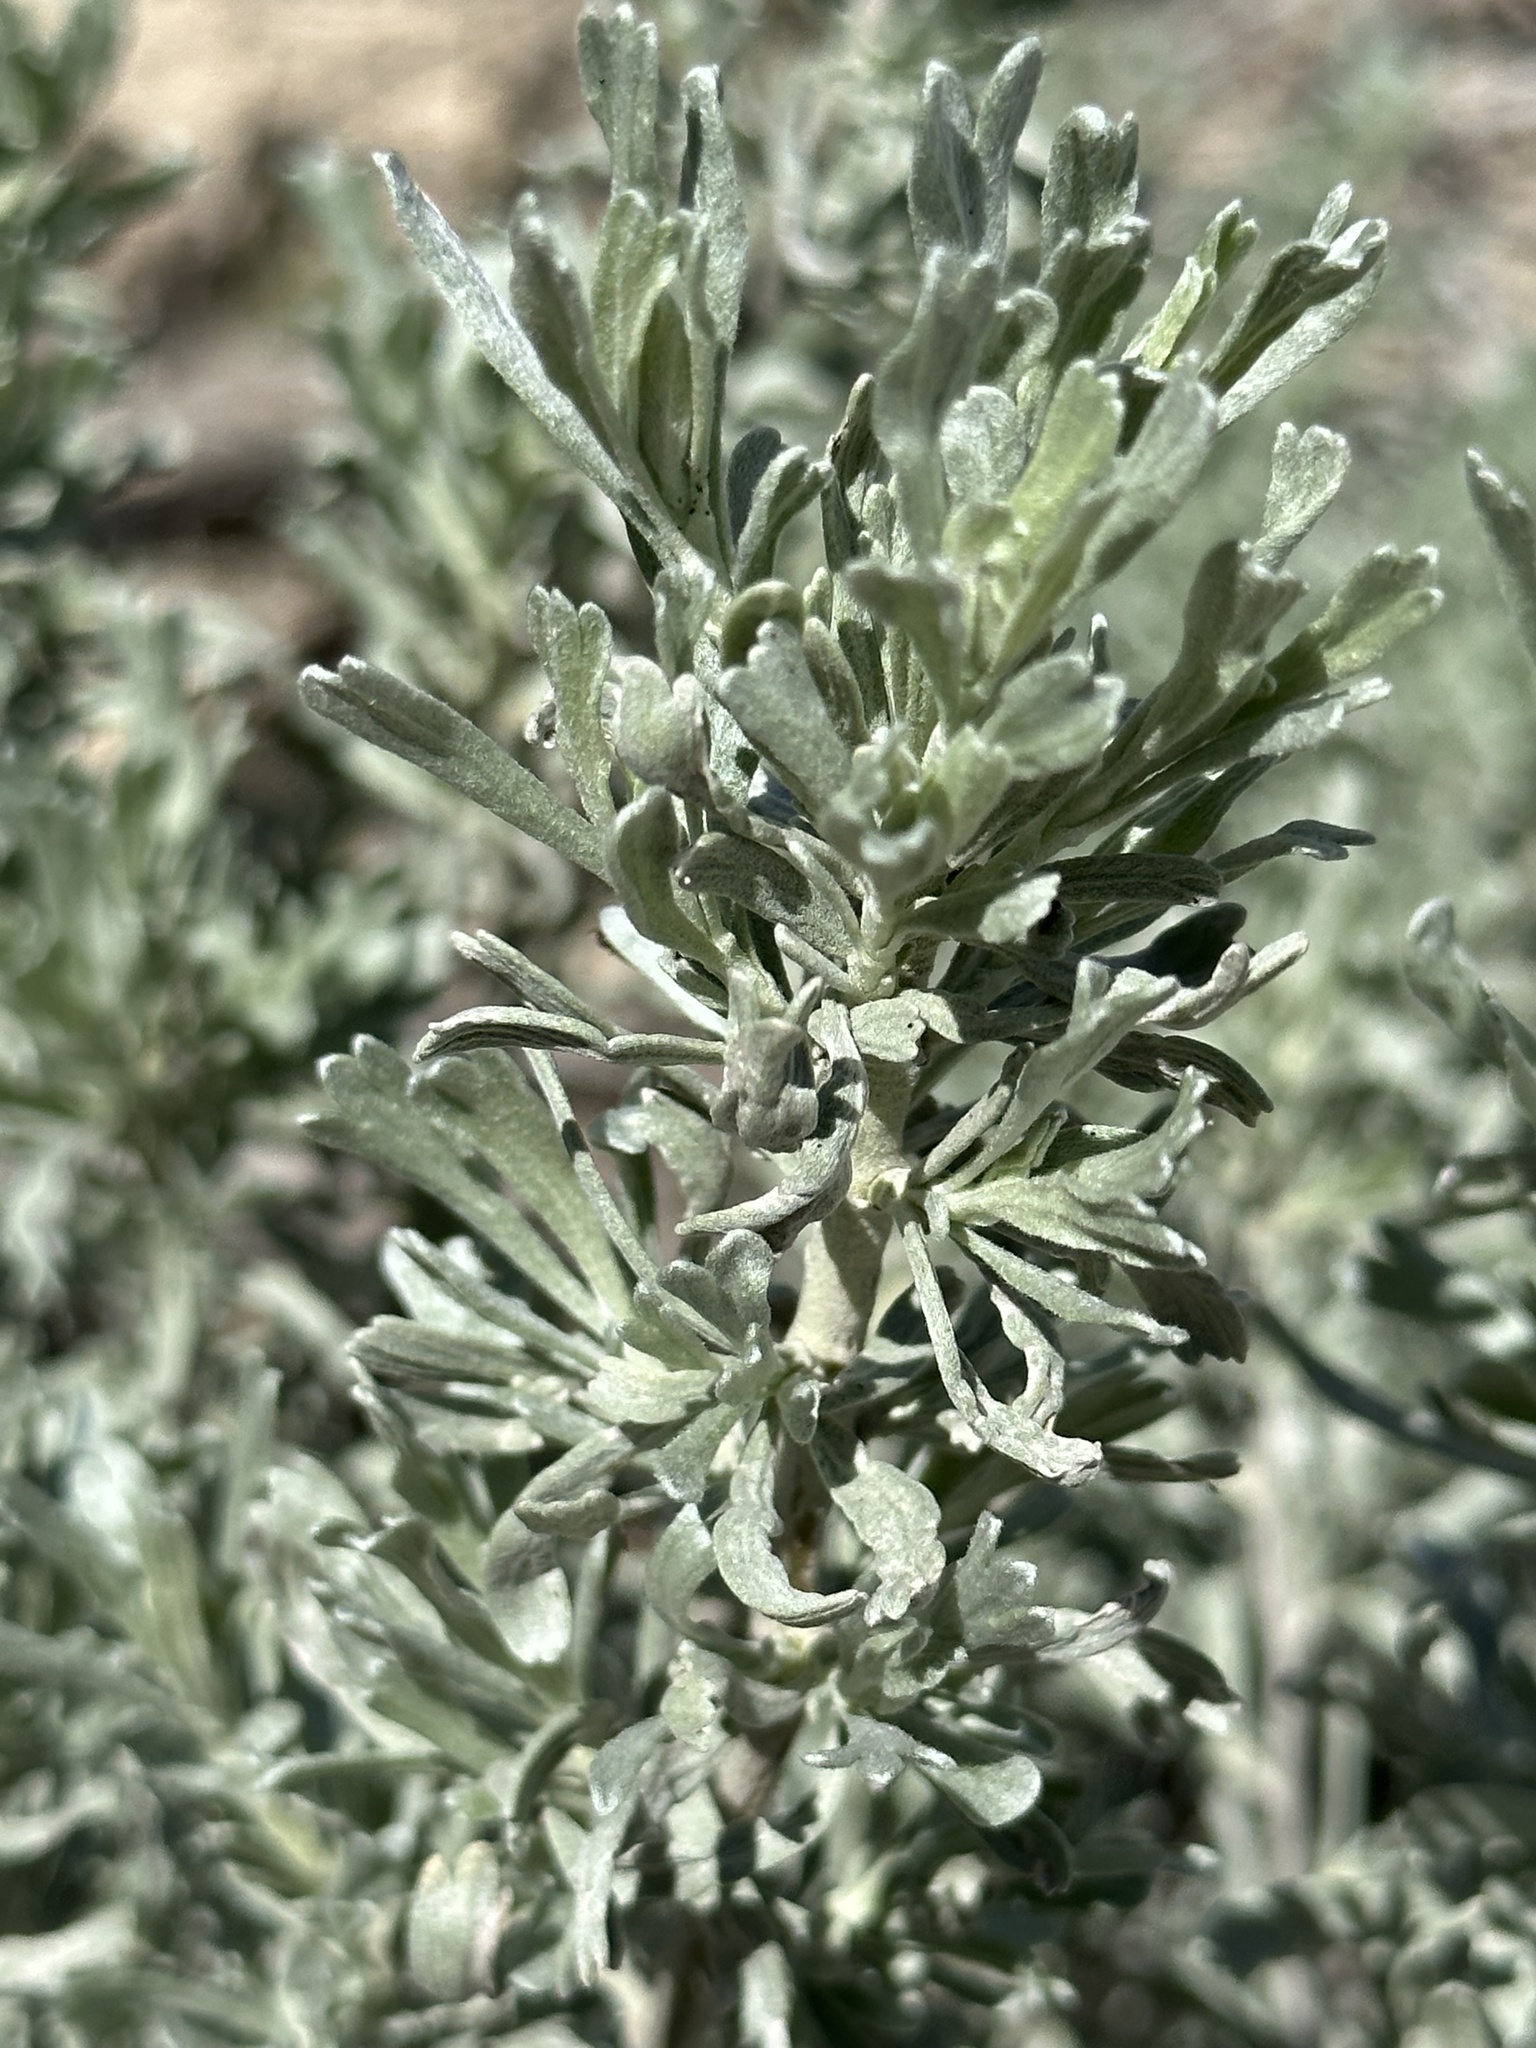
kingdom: Plantae
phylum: Tracheophyta
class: Magnoliopsida
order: Asterales
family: Asteraceae
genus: Artemisia
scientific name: Artemisia tridentata
